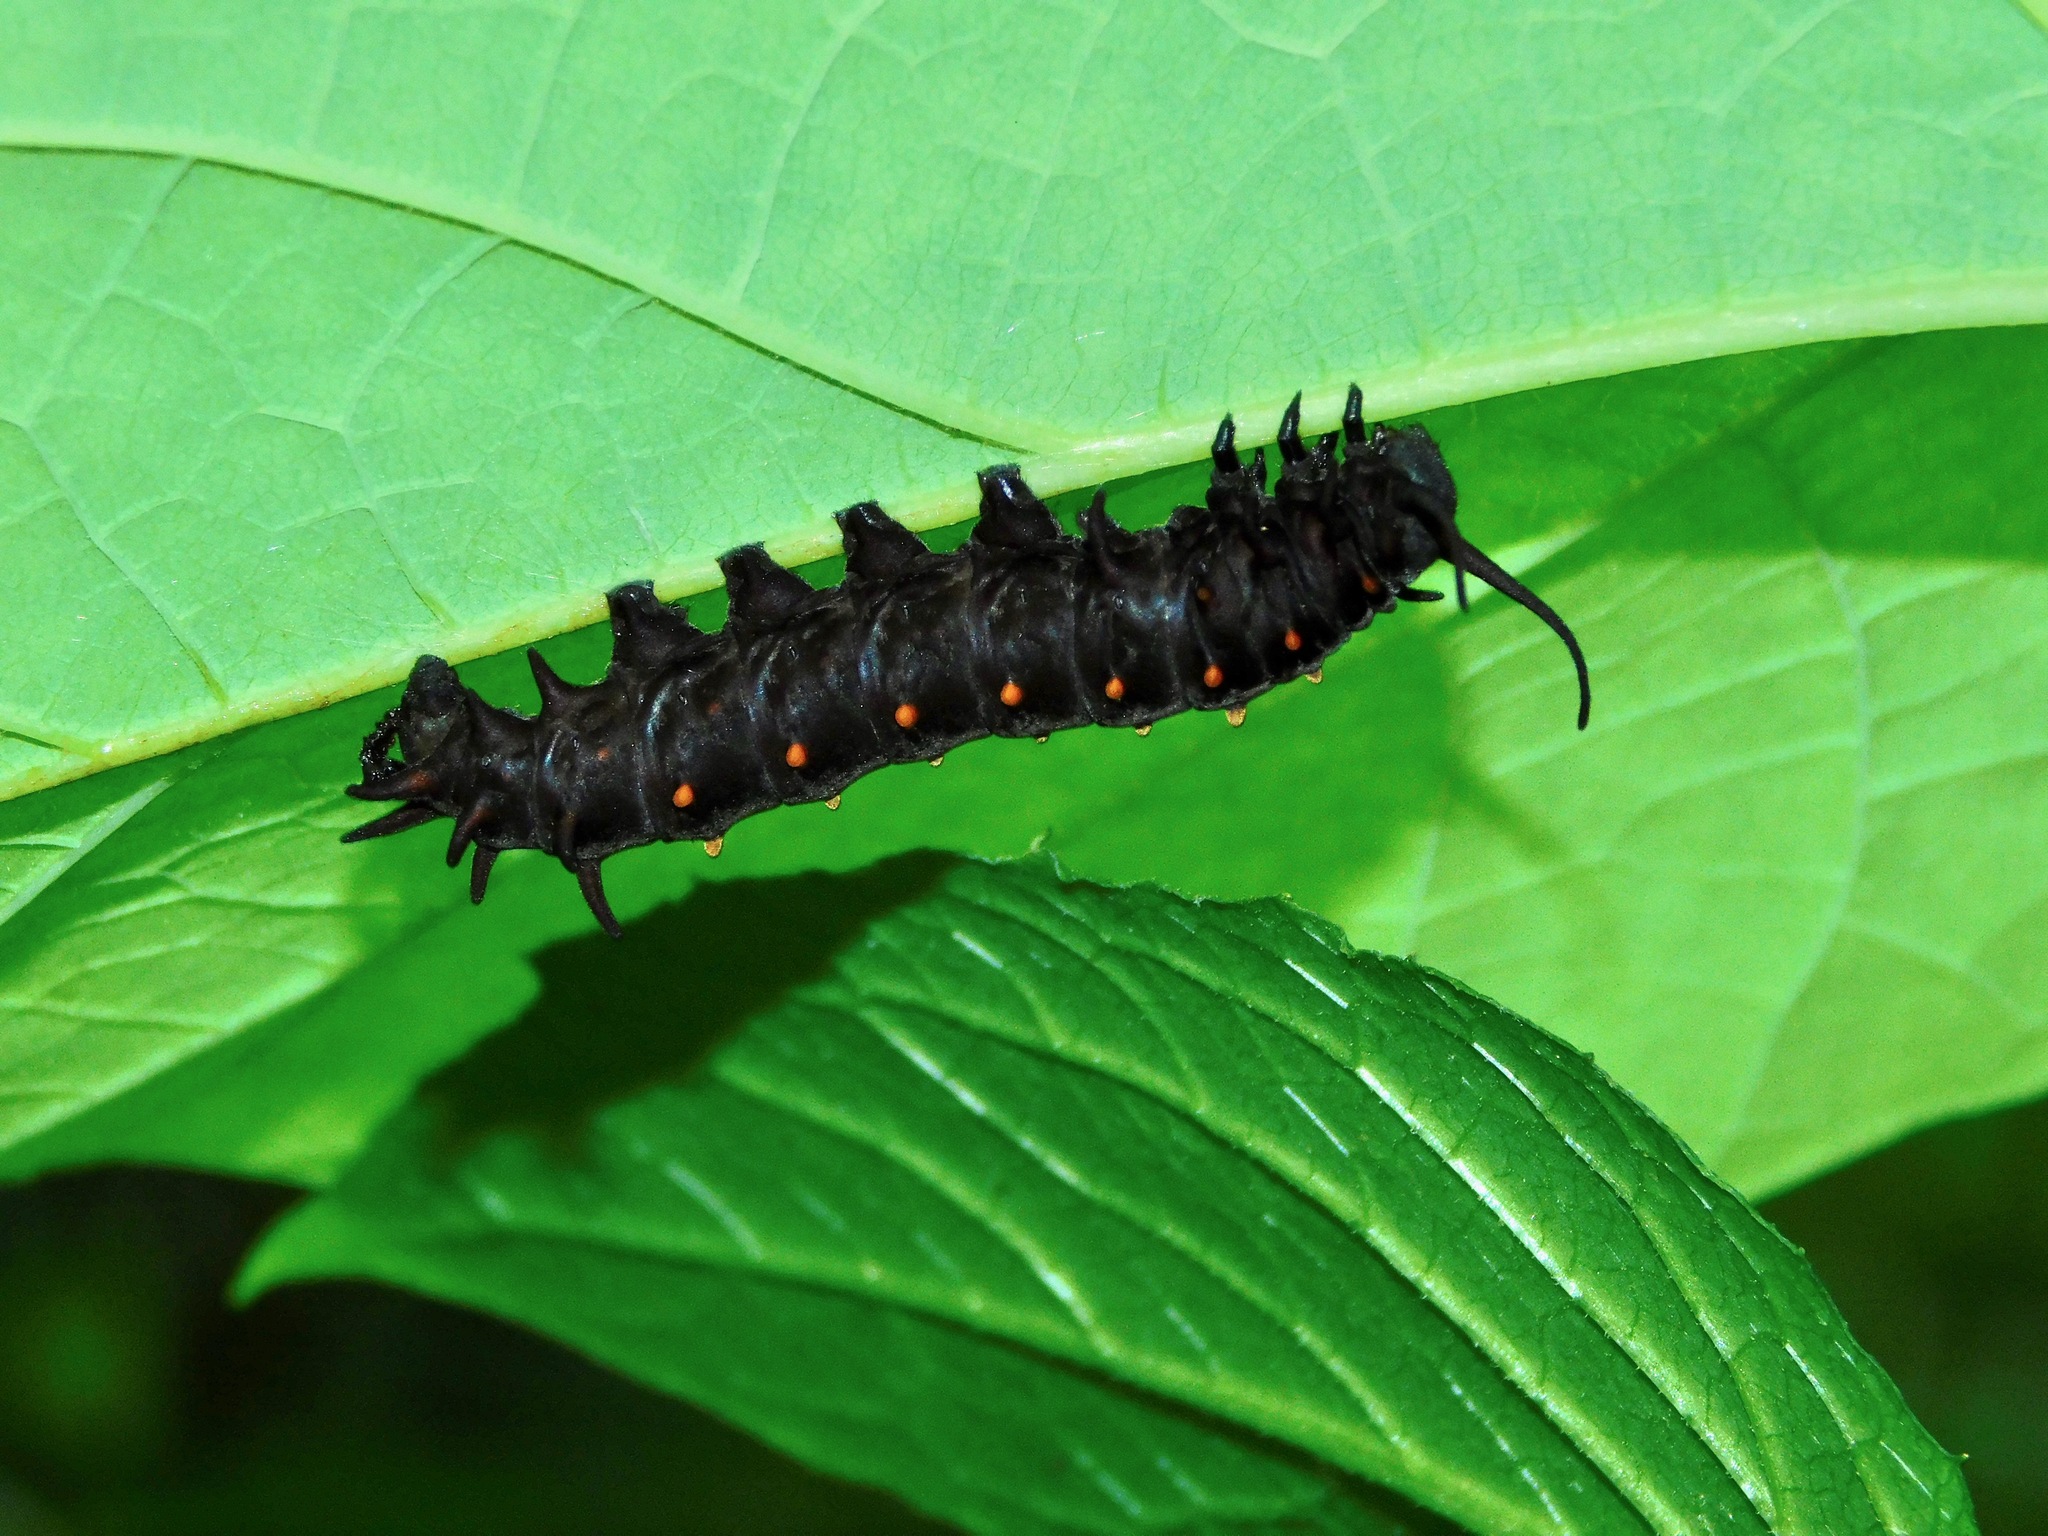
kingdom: Animalia
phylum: Arthropoda
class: Insecta
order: Lepidoptera
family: Papilionidae
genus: Battus
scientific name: Battus philenor
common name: Pipevine swallowtail
